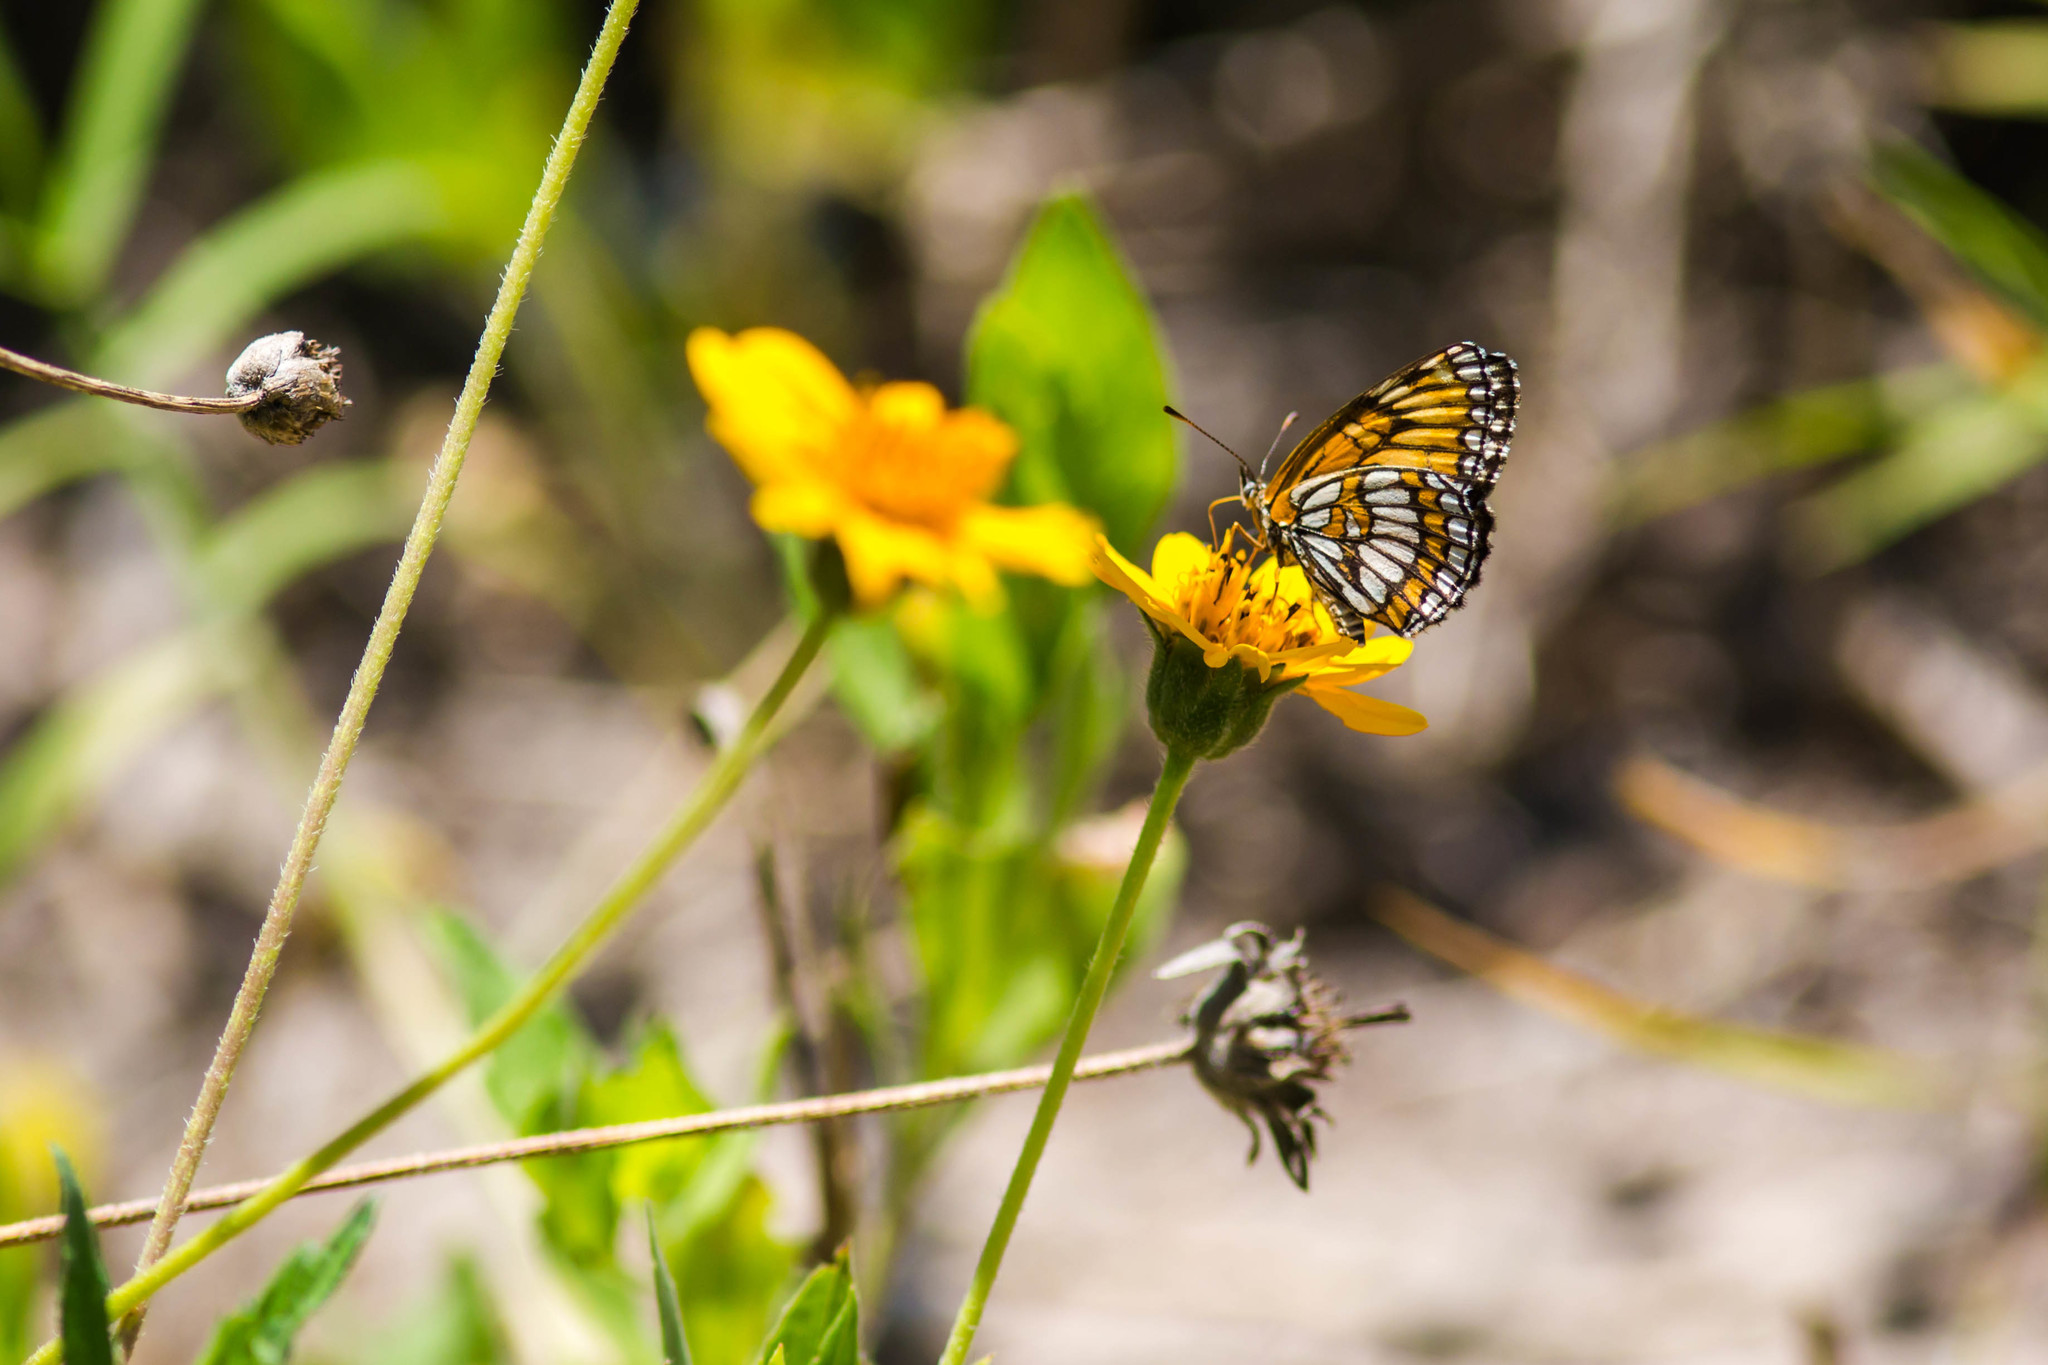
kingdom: Animalia
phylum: Arthropoda
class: Insecta
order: Lepidoptera
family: Nymphalidae
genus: Thessalia
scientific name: Thessalia theona
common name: Nymphalid moth
